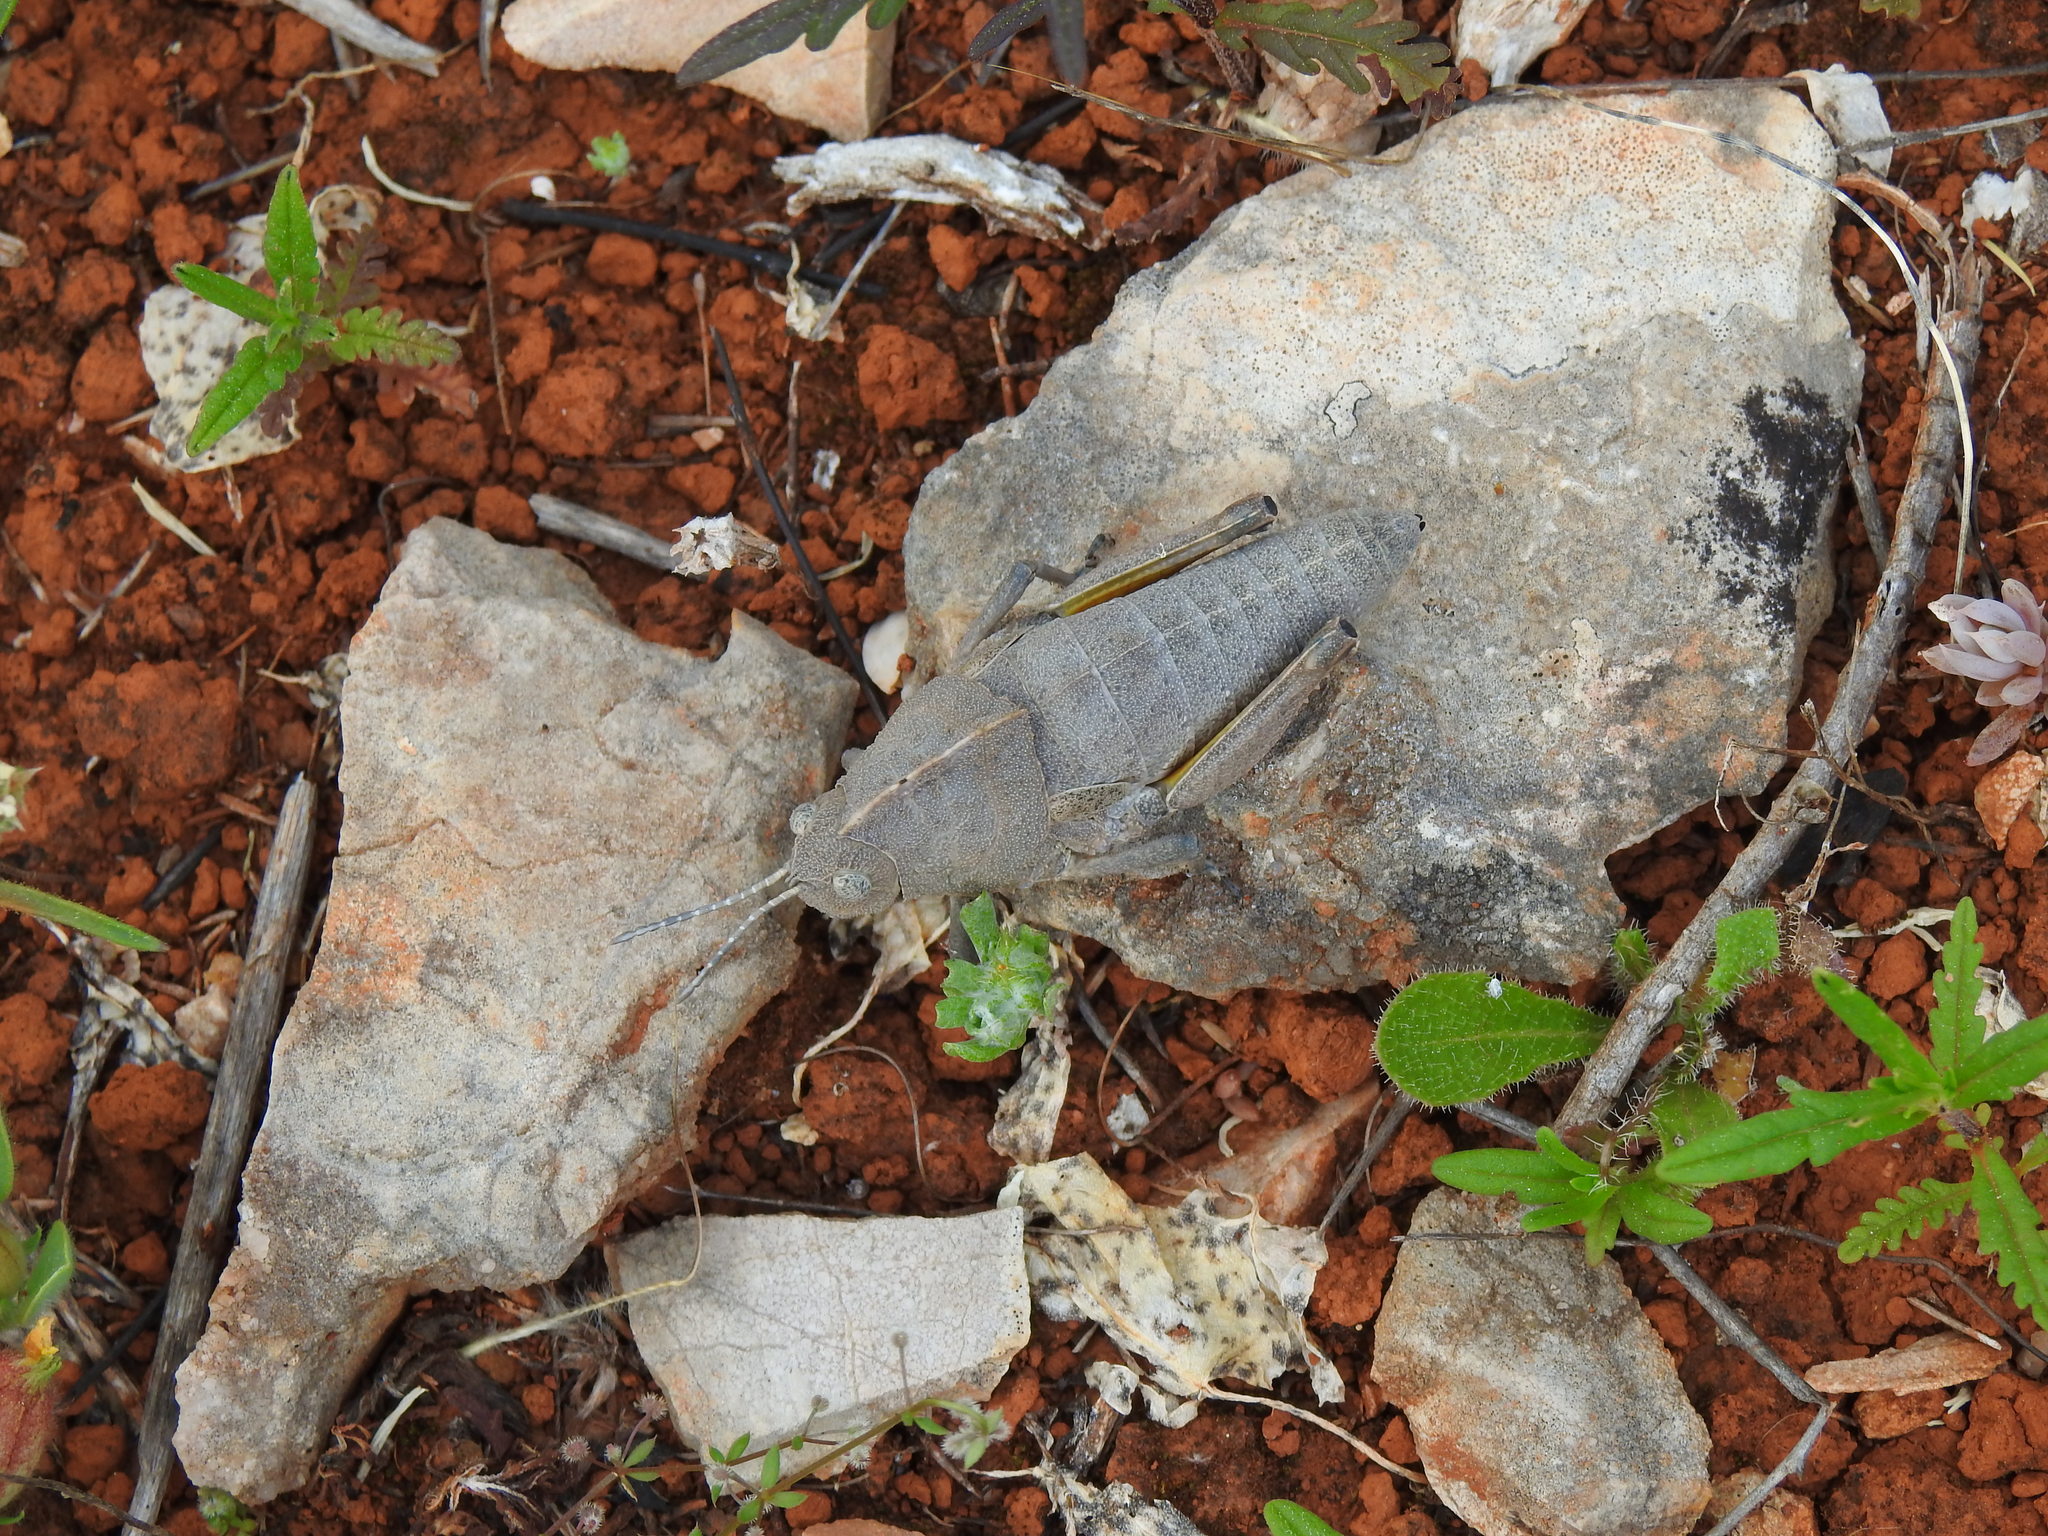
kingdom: Animalia
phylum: Arthropoda
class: Insecta
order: Orthoptera
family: Pamphagidae
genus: Ocnerodes
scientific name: Ocnerodes fallaciosus
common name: Misleading stone grasshopper
